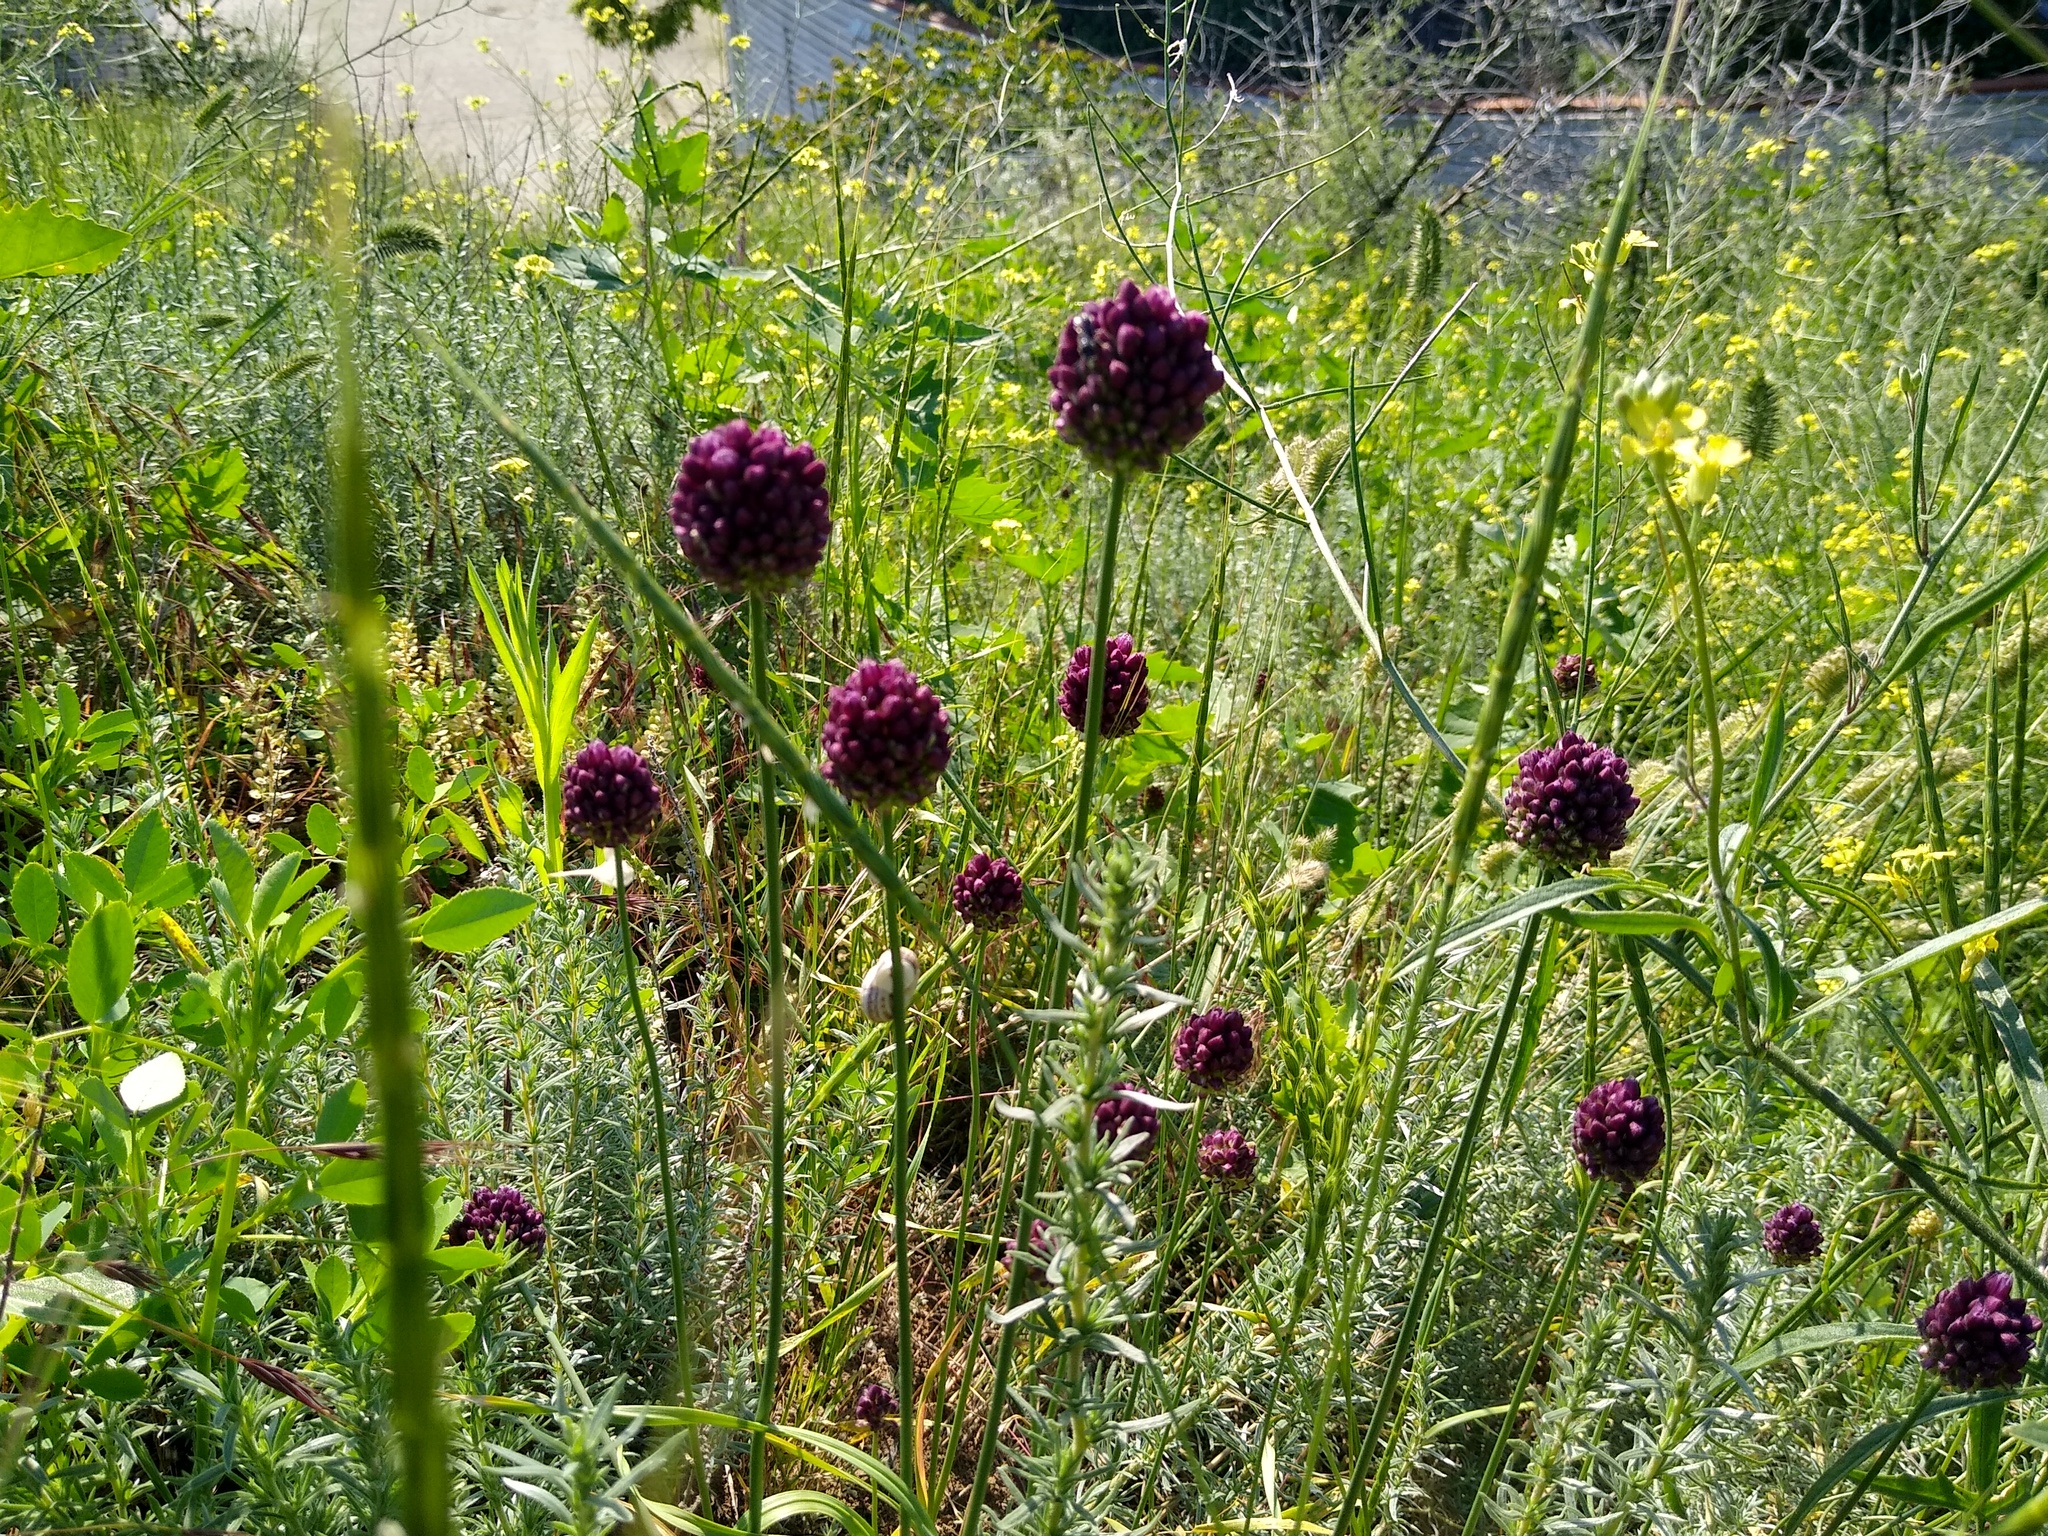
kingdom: Plantae
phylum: Tracheophyta
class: Liliopsida
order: Asparagales
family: Amaryllidaceae
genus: Allium
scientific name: Allium rotundum
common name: Sand leek
